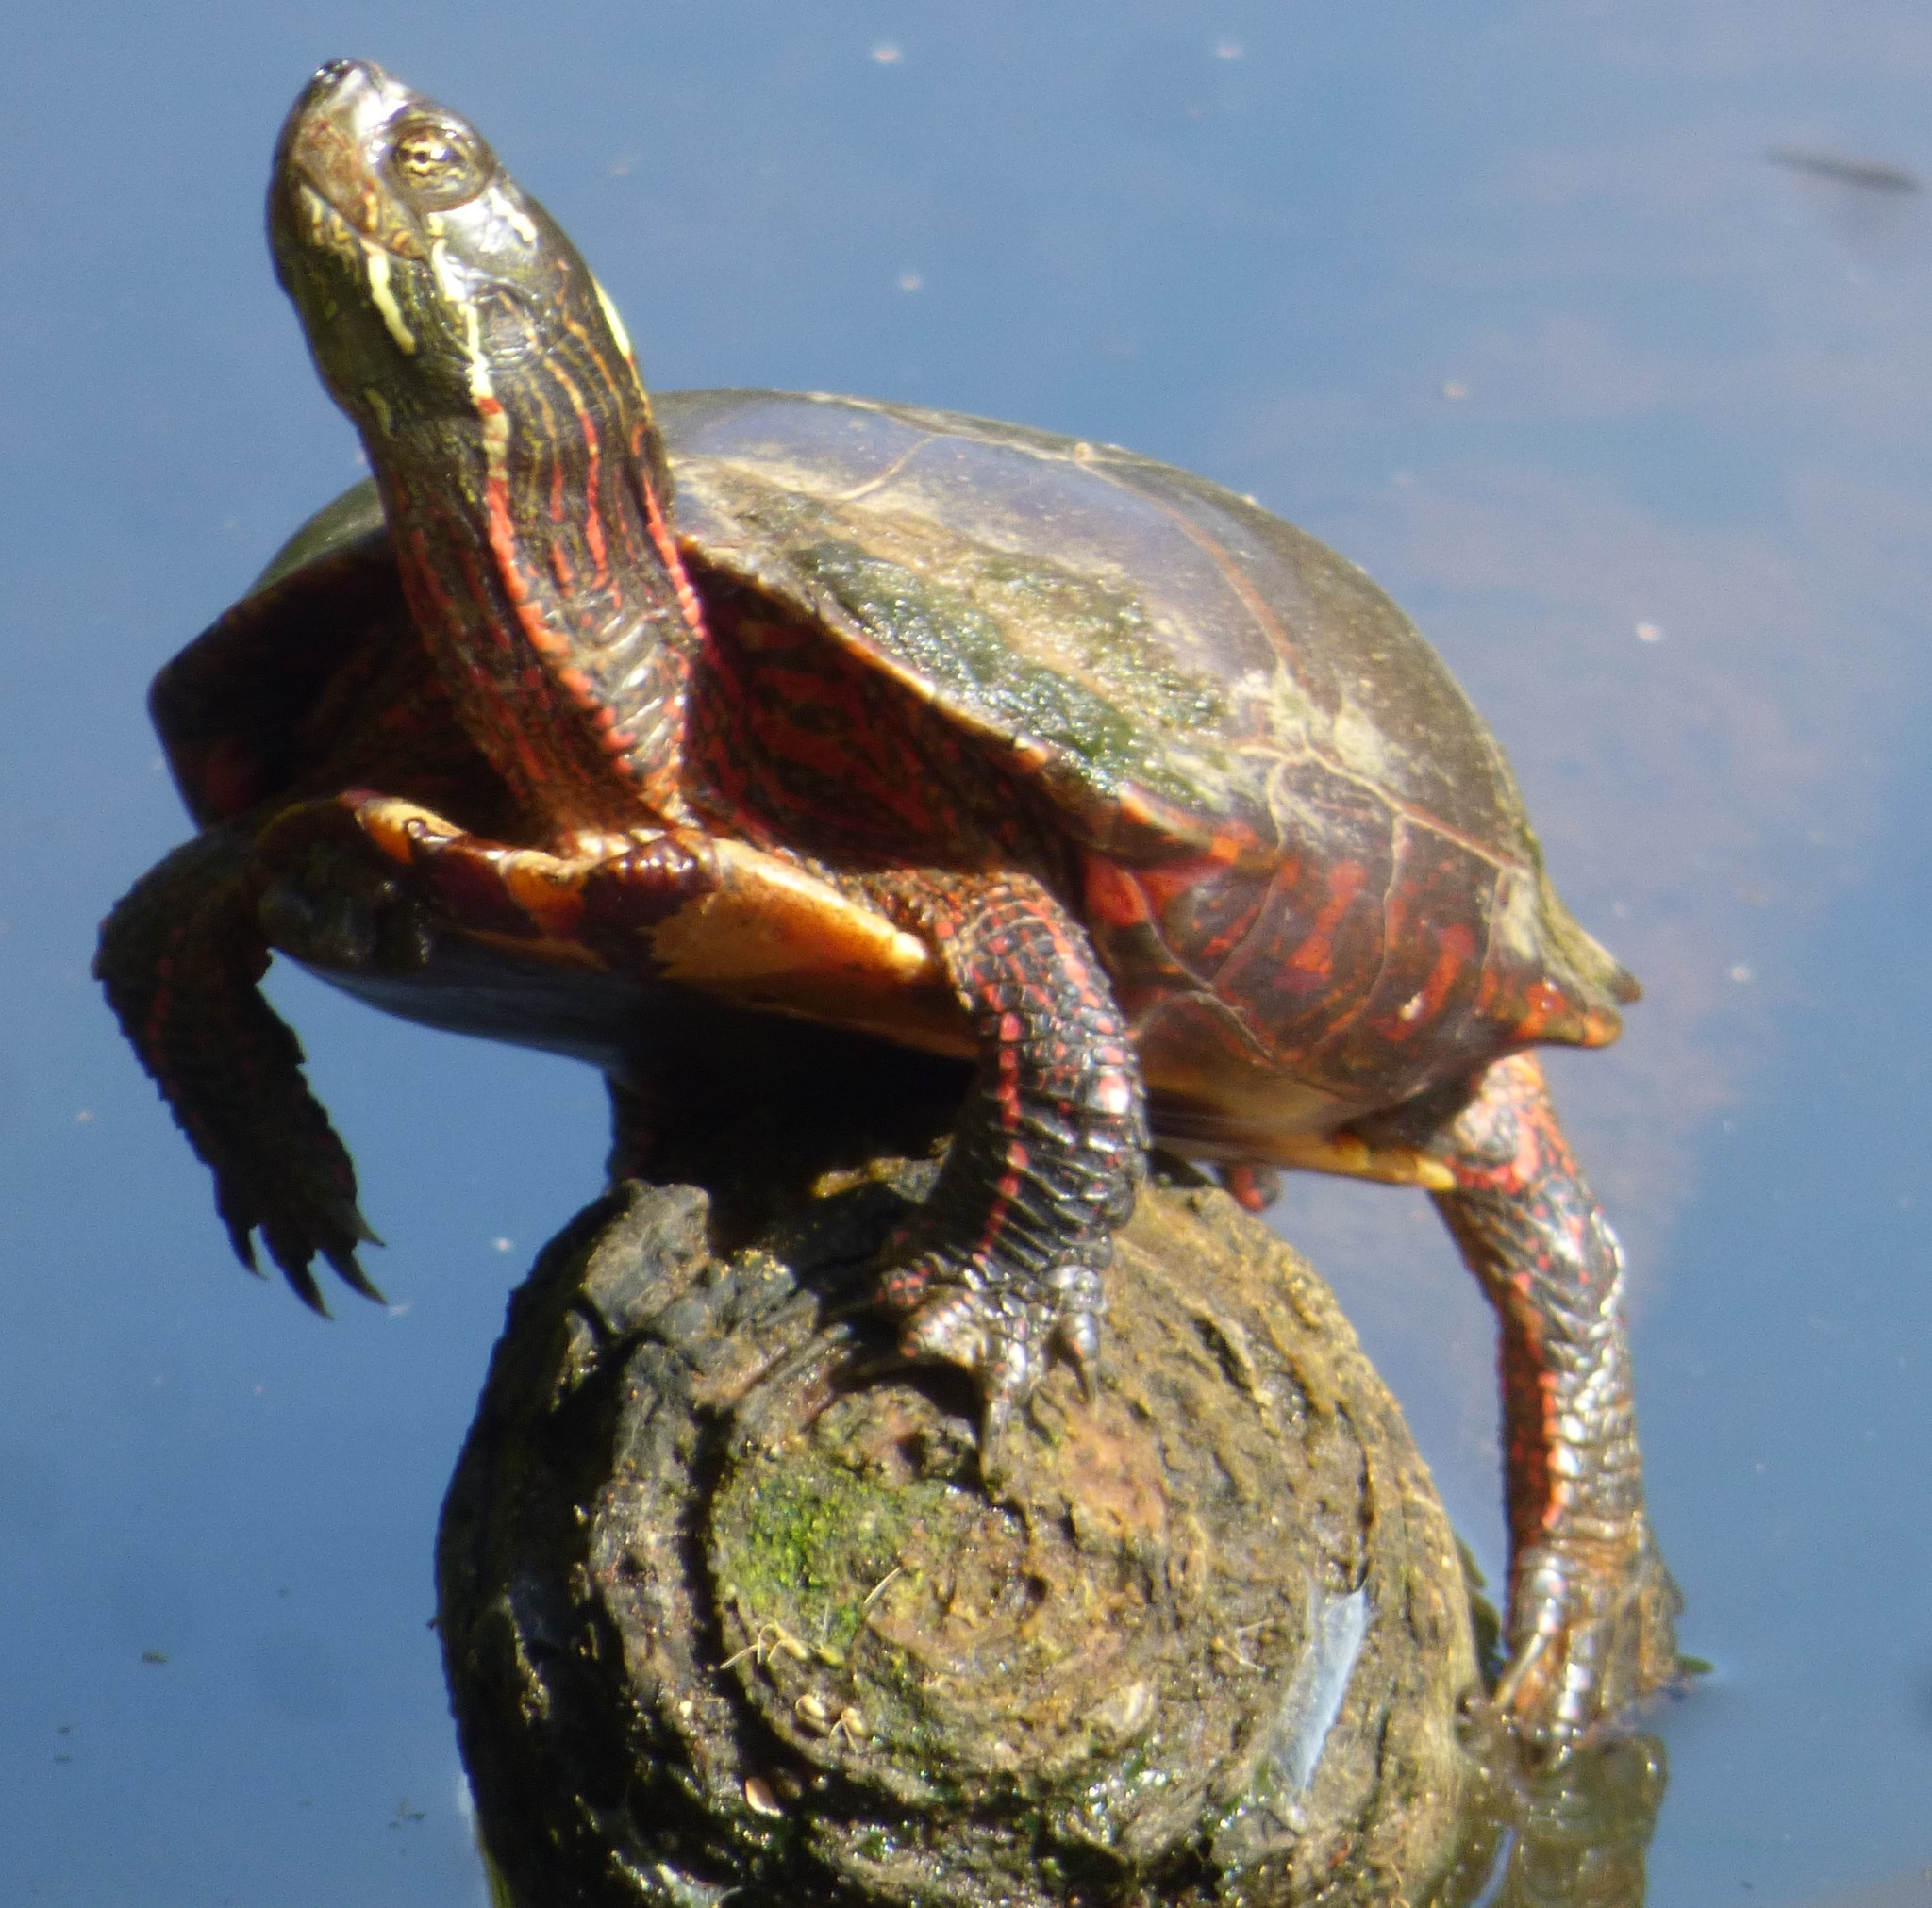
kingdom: Animalia
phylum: Chordata
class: Testudines
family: Emydidae
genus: Chrysemys
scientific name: Chrysemys picta
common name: Painted turtle
